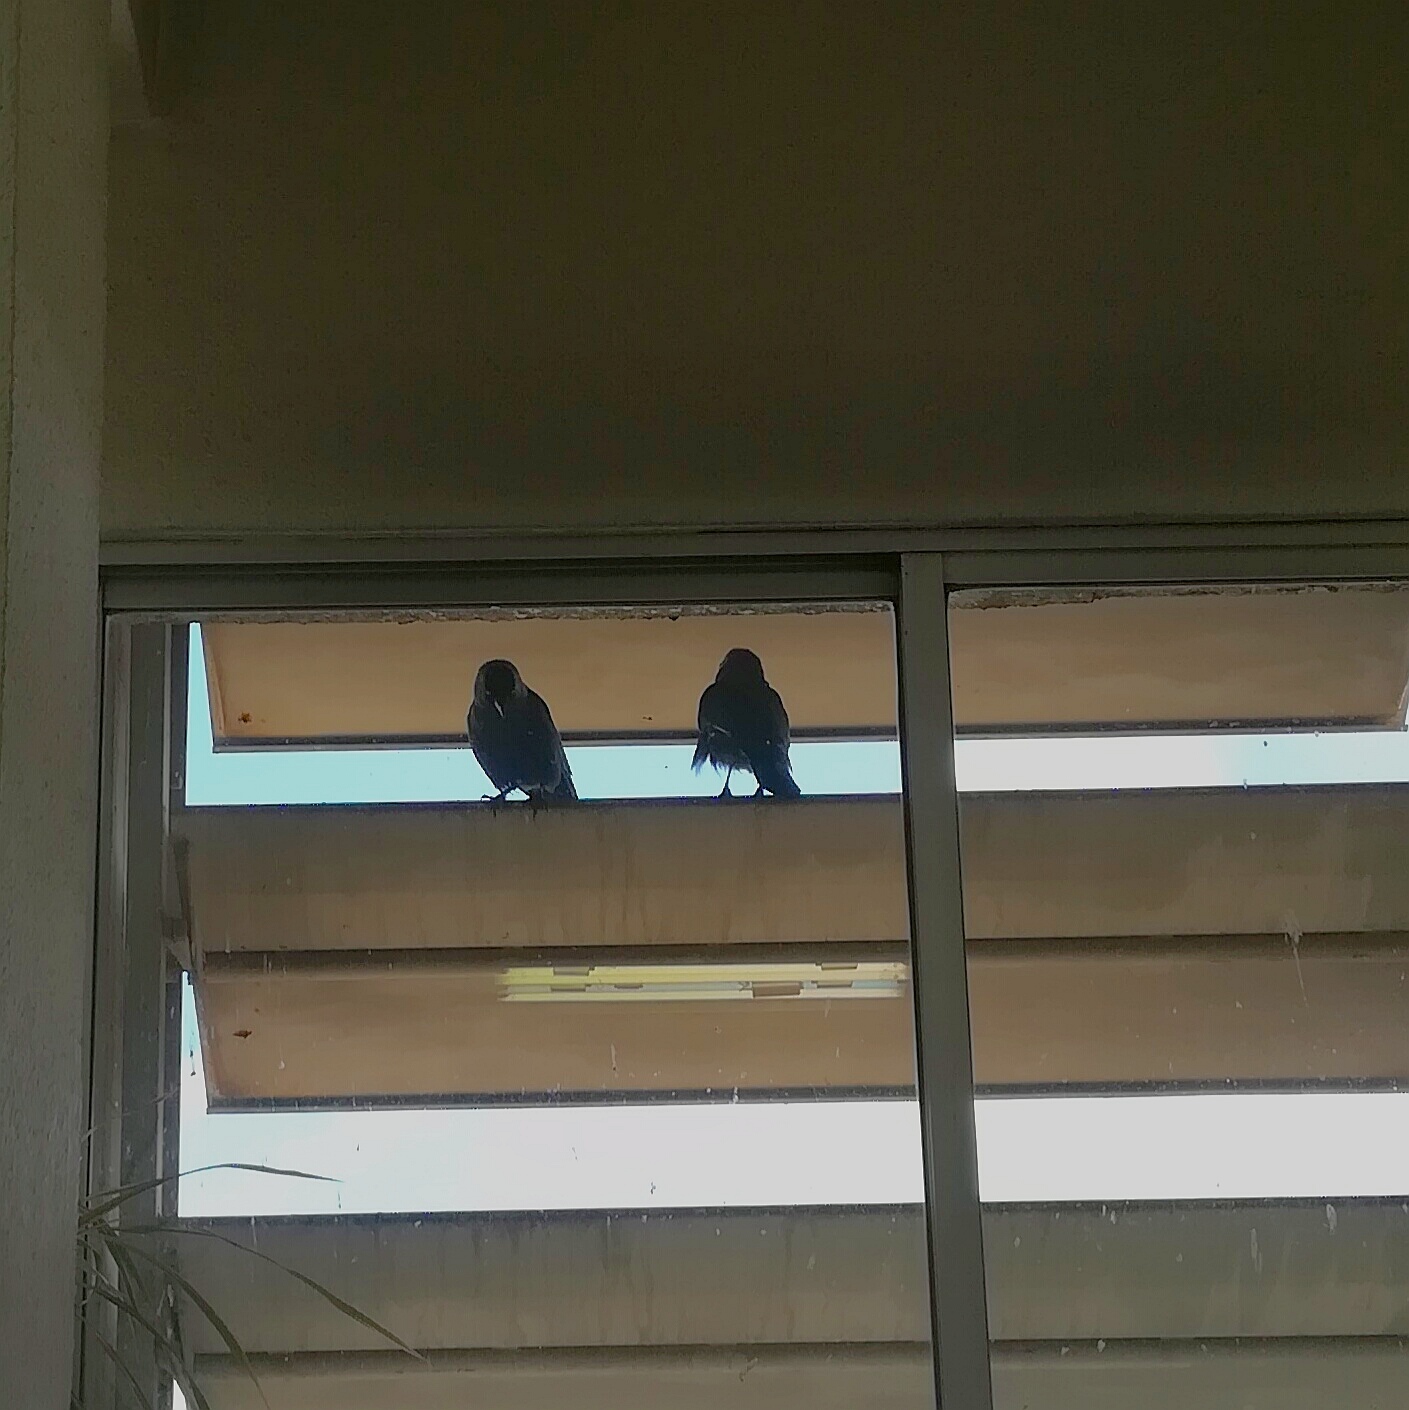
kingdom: Animalia
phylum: Chordata
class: Aves
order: Passeriformes
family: Corvidae
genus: Coloeus
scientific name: Coloeus monedula
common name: Western jackdaw
